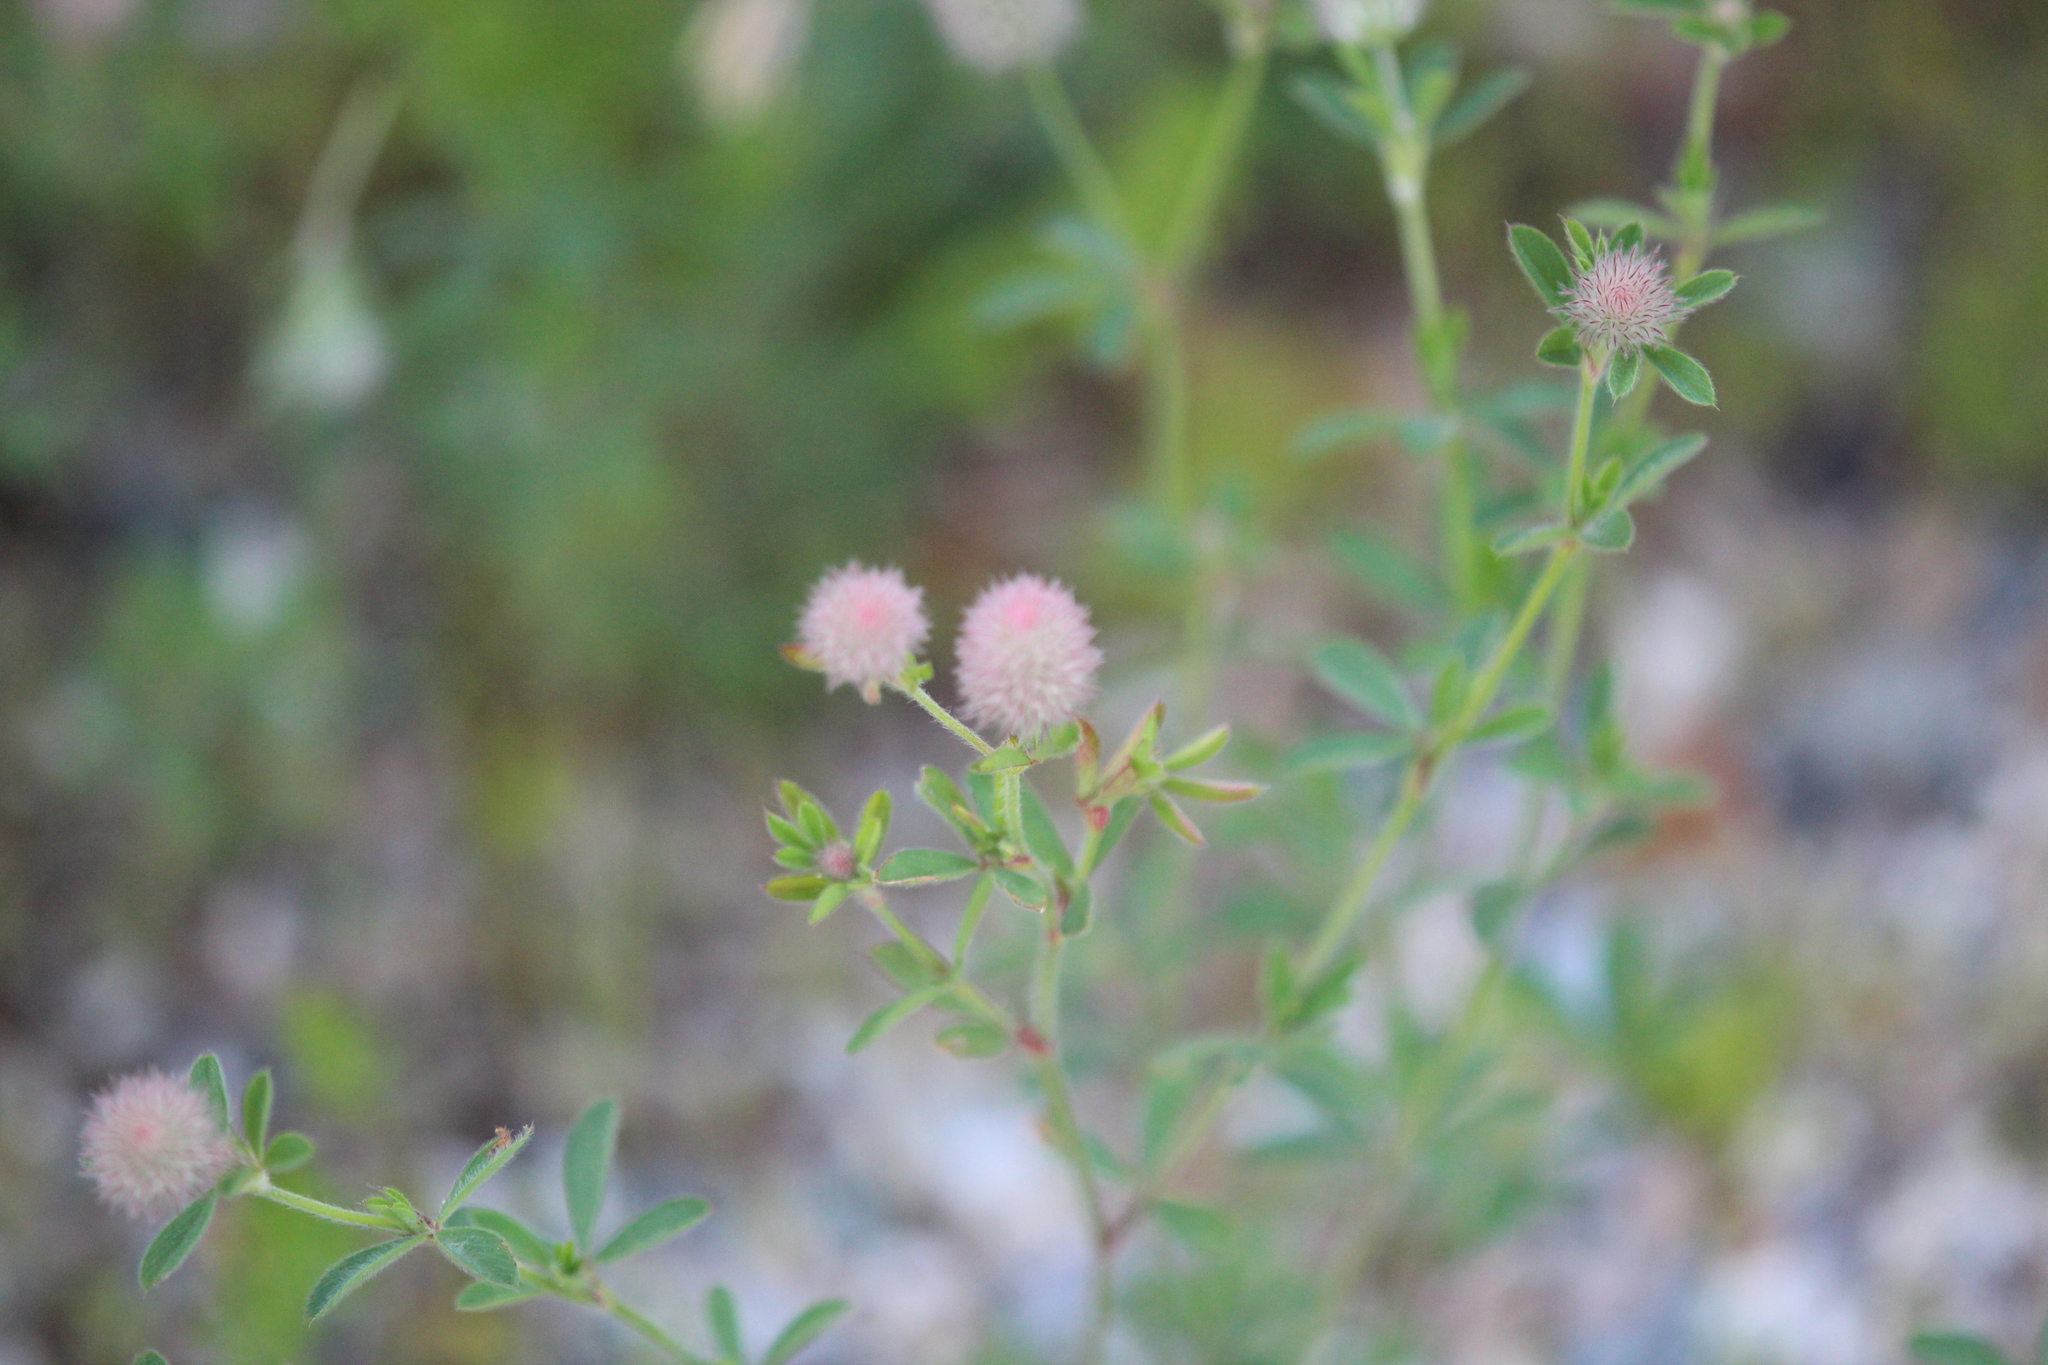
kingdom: Plantae
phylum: Tracheophyta
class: Magnoliopsida
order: Fabales
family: Fabaceae
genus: Trifolium
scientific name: Trifolium arvense
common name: Hare's-foot clover
